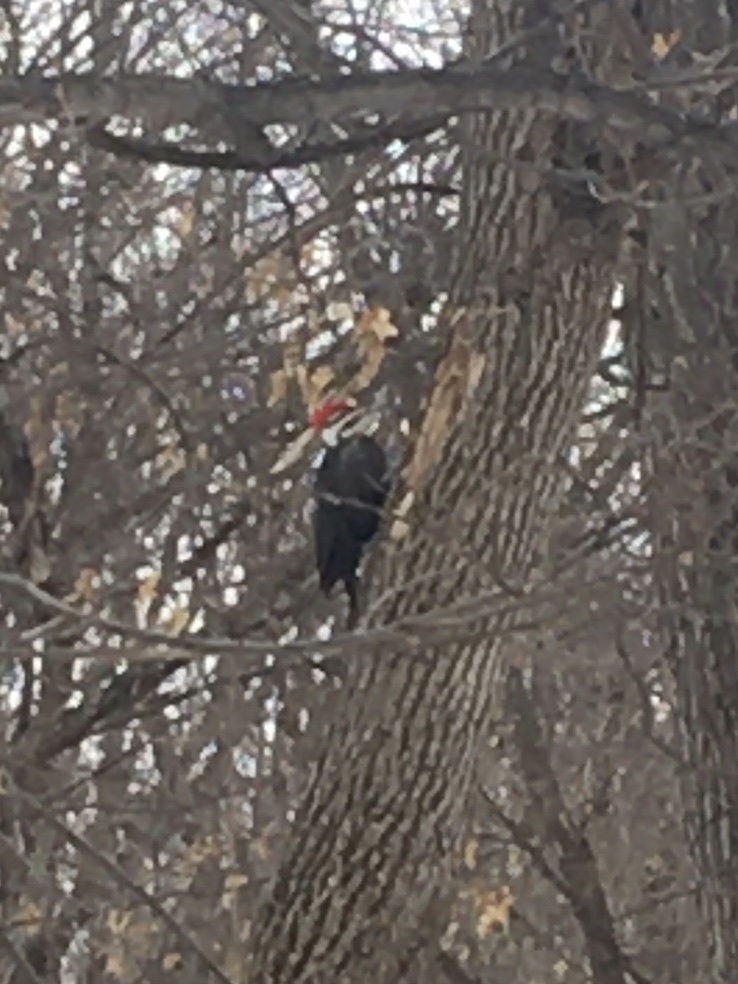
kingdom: Animalia
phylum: Chordata
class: Aves
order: Piciformes
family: Picidae
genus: Dryocopus
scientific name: Dryocopus pileatus
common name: Pileated woodpecker
